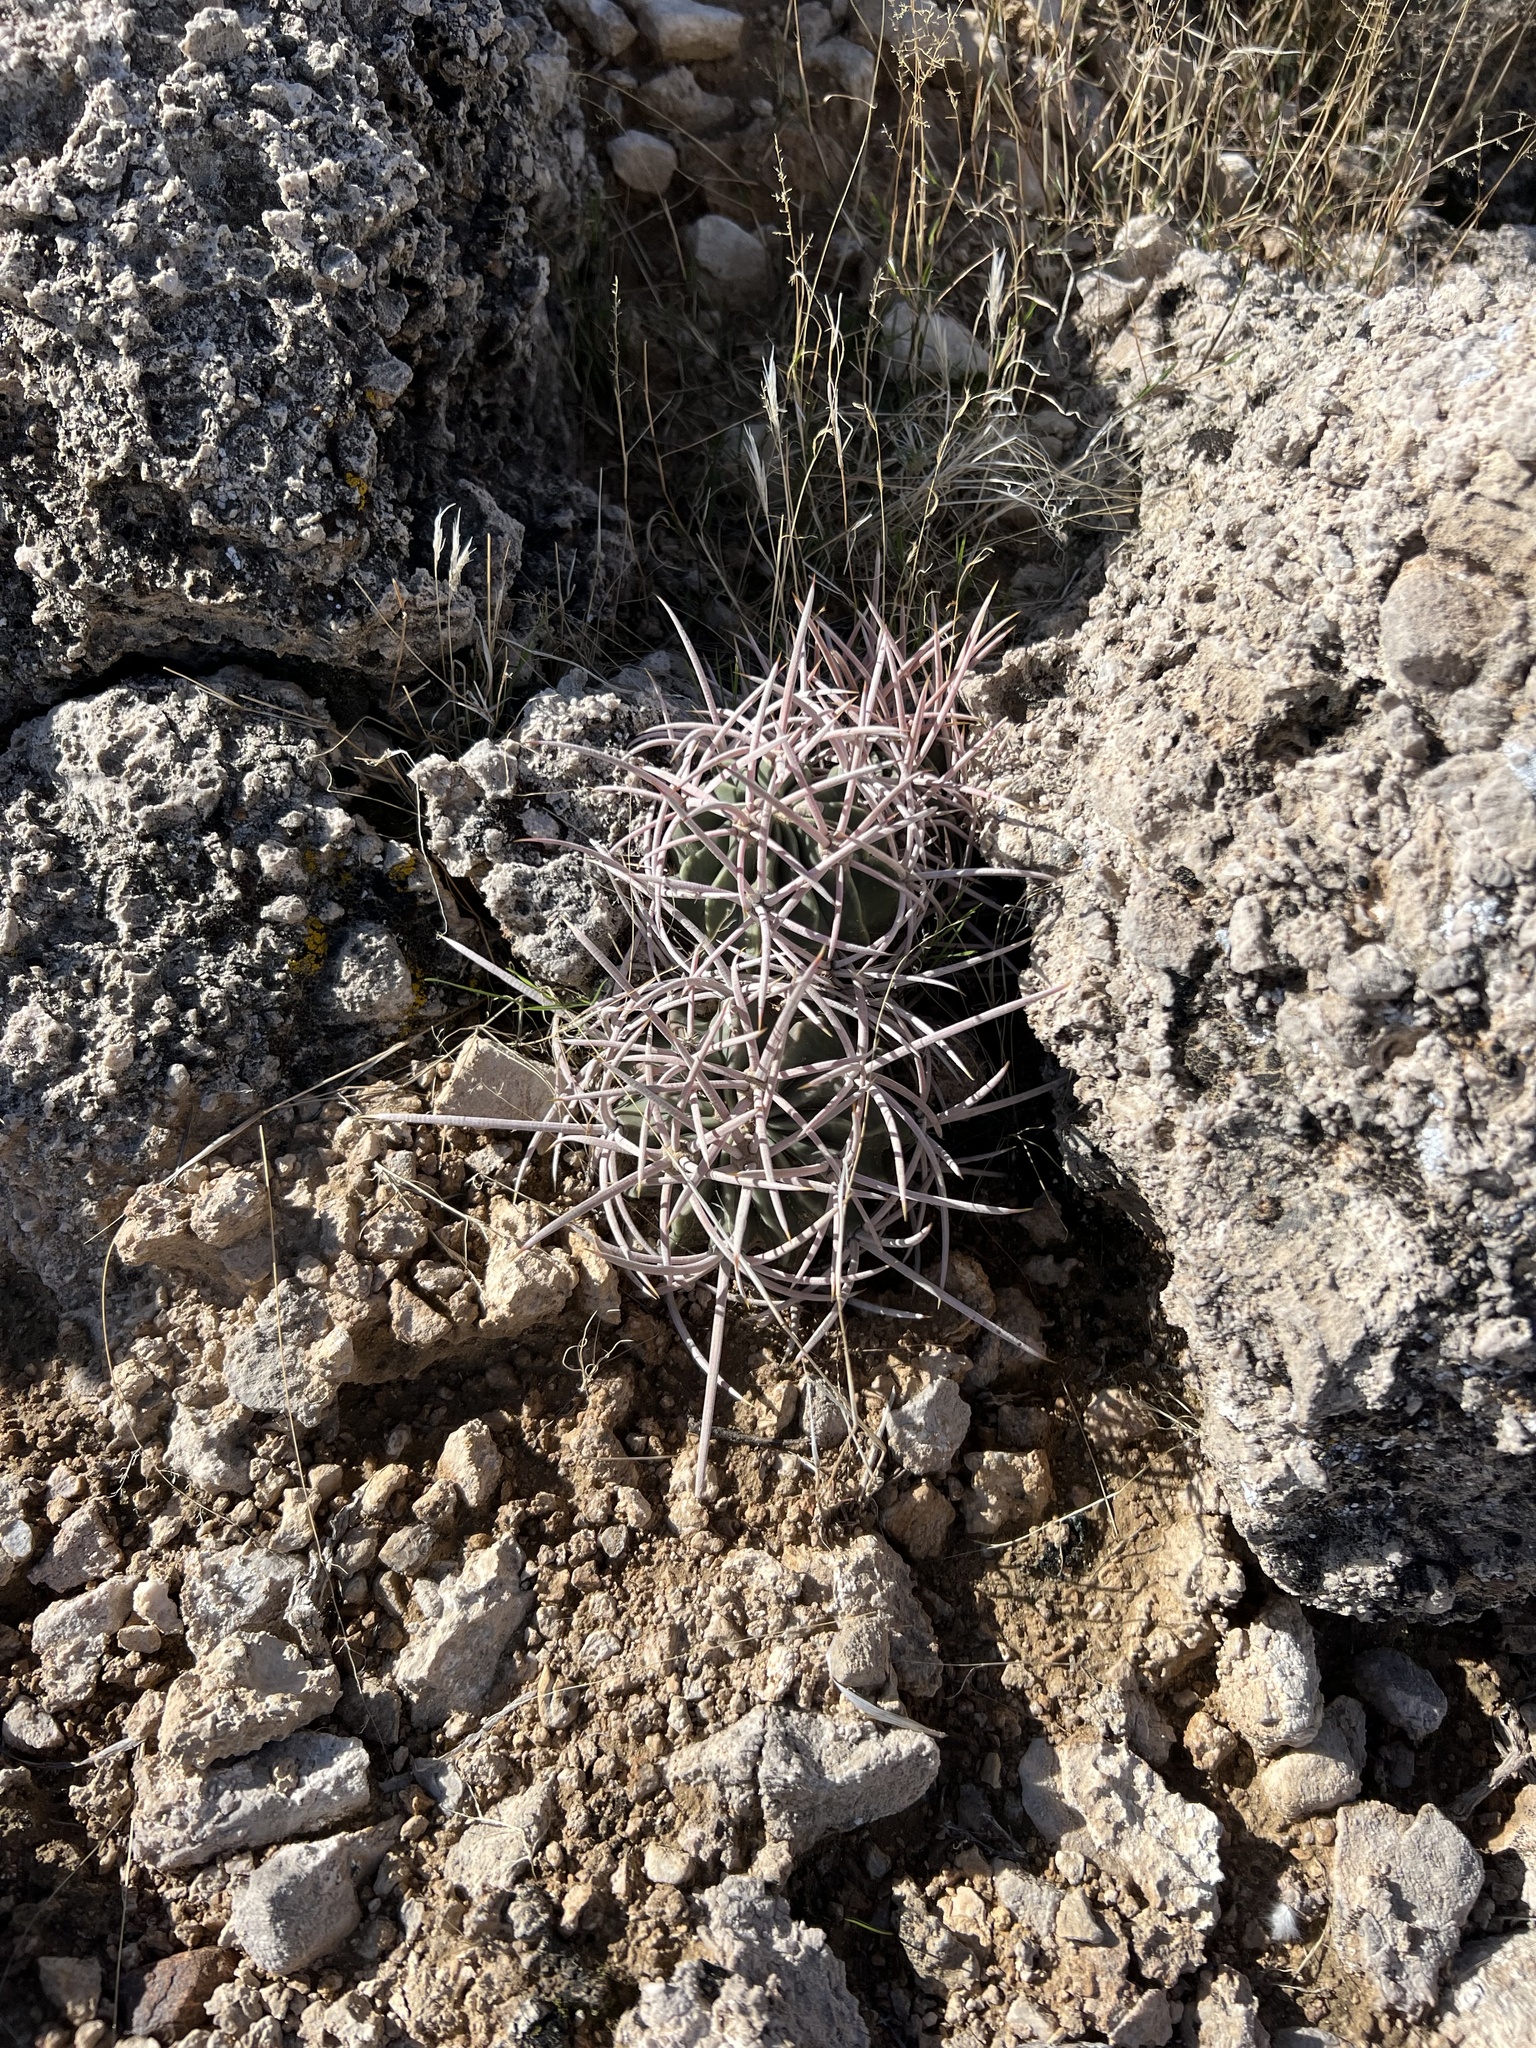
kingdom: Plantae
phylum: Tracheophyta
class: Magnoliopsida
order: Caryophyllales
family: Cactaceae
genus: Echinocactus
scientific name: Echinocactus polycephalus
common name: Cottontop cactus
